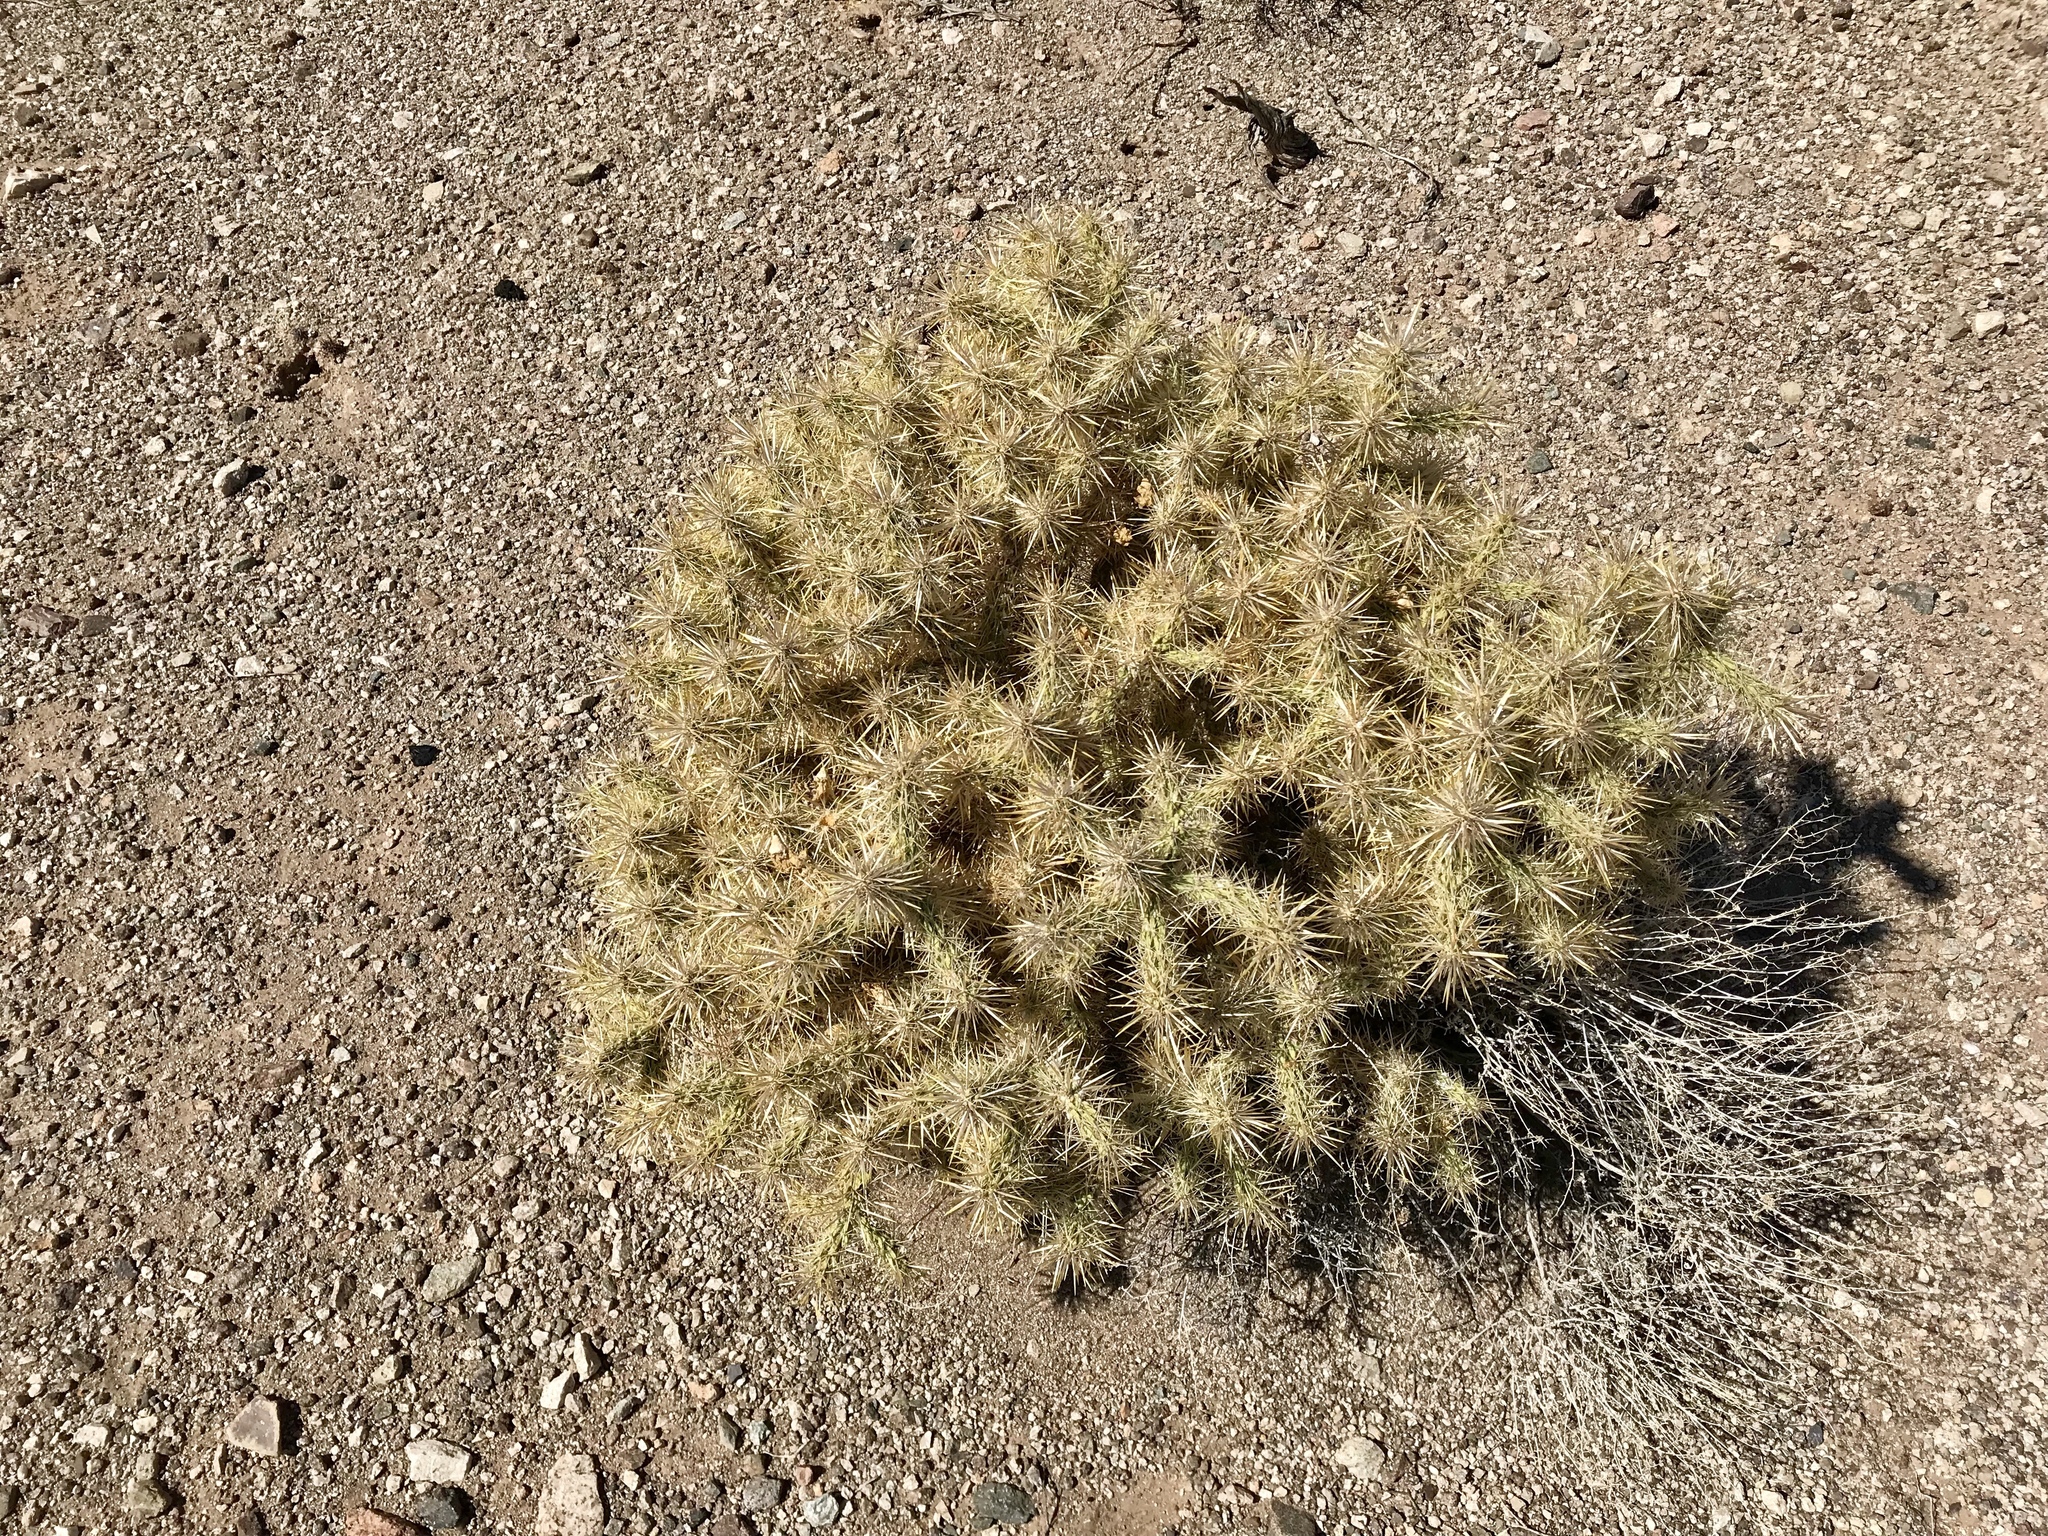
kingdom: Plantae
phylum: Tracheophyta
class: Magnoliopsida
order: Caryophyllales
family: Cactaceae
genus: Cylindropuntia
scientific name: Cylindropuntia echinocarpa
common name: Ground cholla
